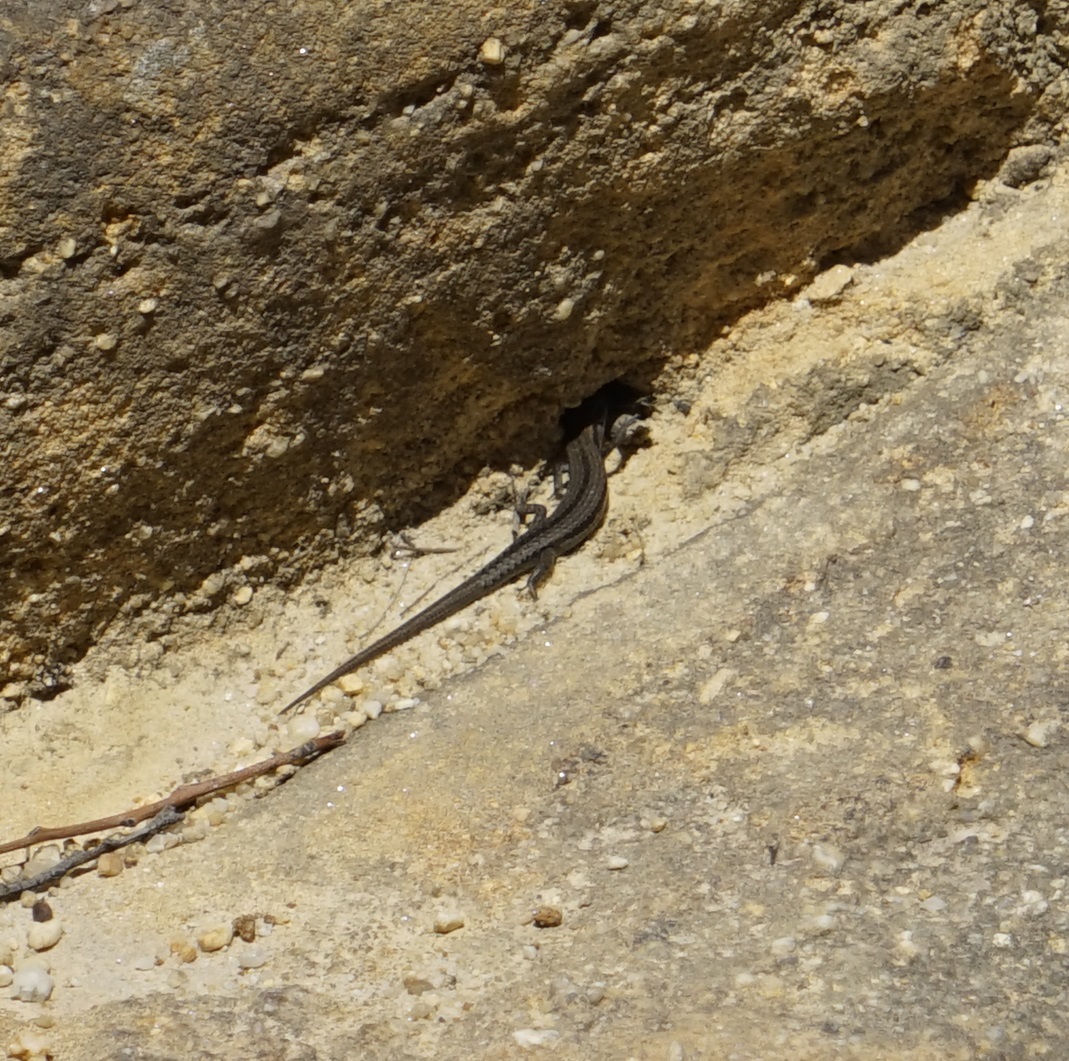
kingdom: Animalia
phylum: Chordata
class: Squamata
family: Scincidae
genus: Lampropholis
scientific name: Lampropholis guichenoti
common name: Garden skink
